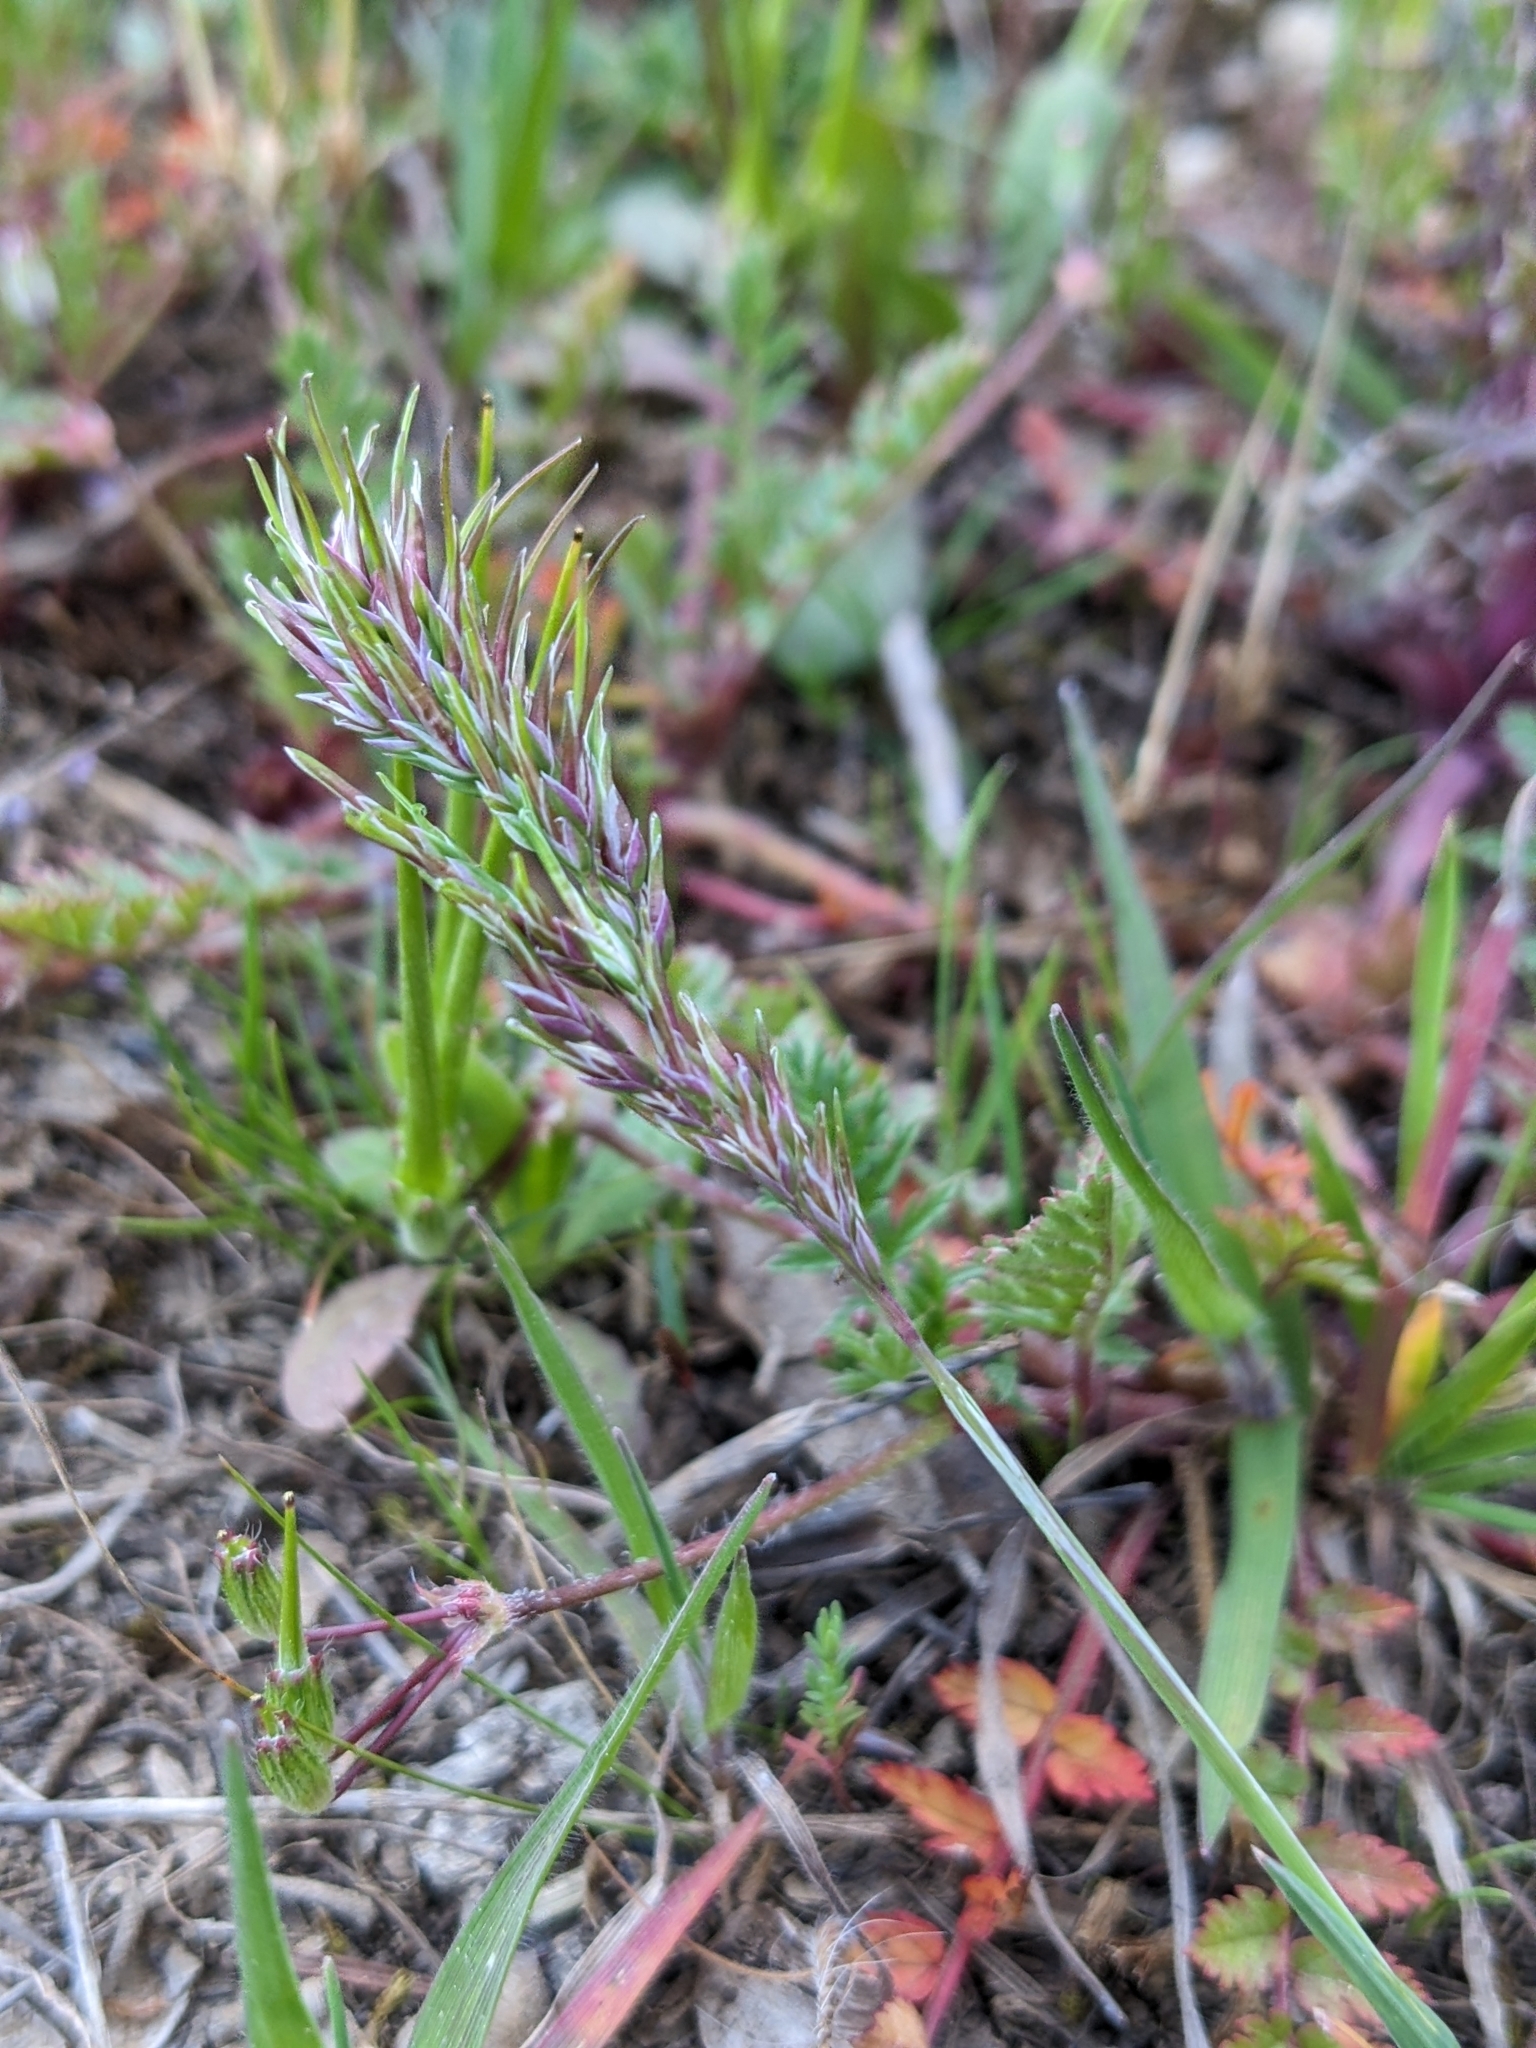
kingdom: Plantae
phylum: Tracheophyta
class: Liliopsida
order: Poales
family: Poaceae
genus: Poa
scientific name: Poa bulbosa
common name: Bulbous bluegrass
